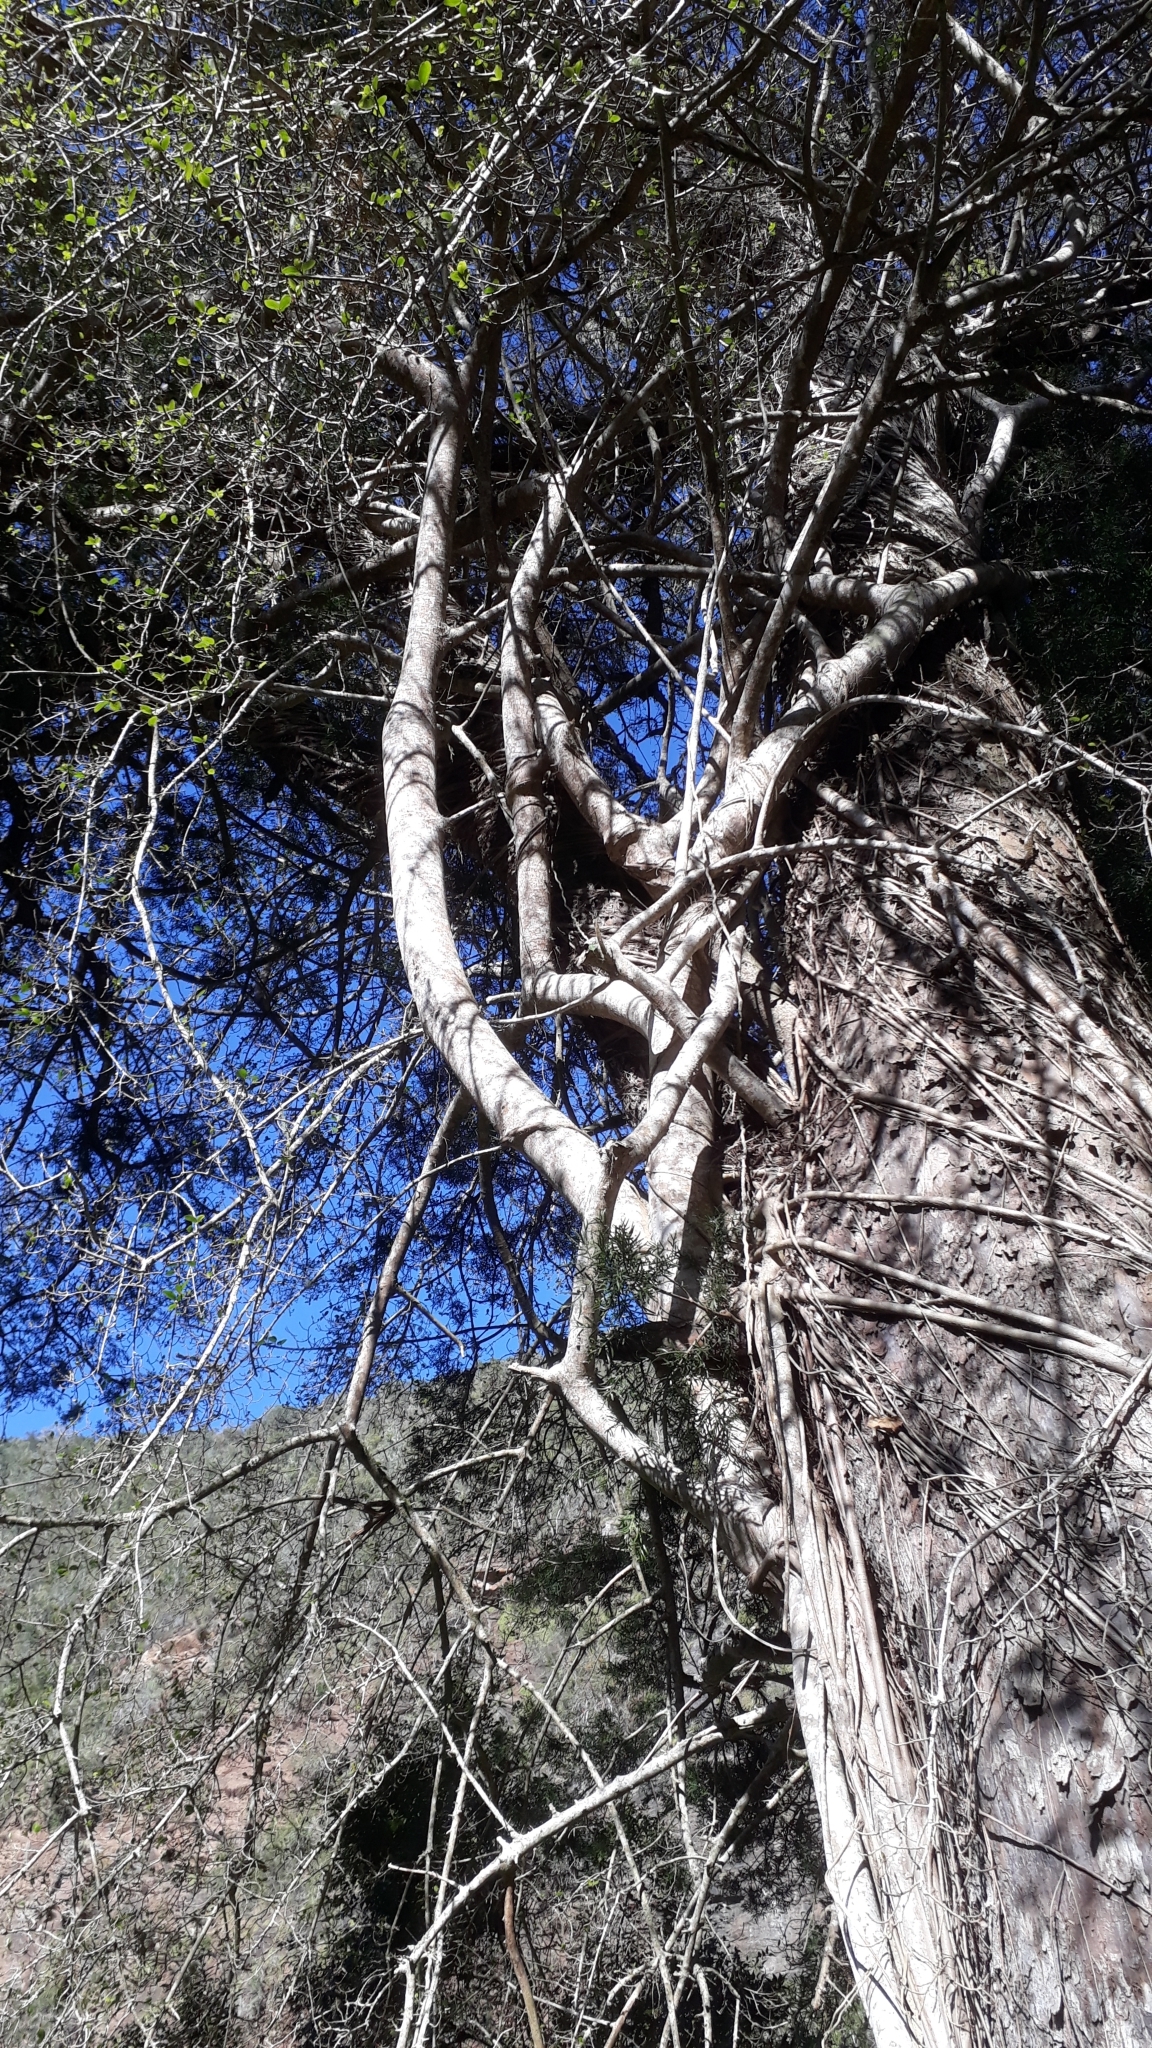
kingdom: Plantae
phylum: Tracheophyta
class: Magnoliopsida
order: Rosales
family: Moraceae
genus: Ficus
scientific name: Ficus burtt-davyi
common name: Scrambling fig
